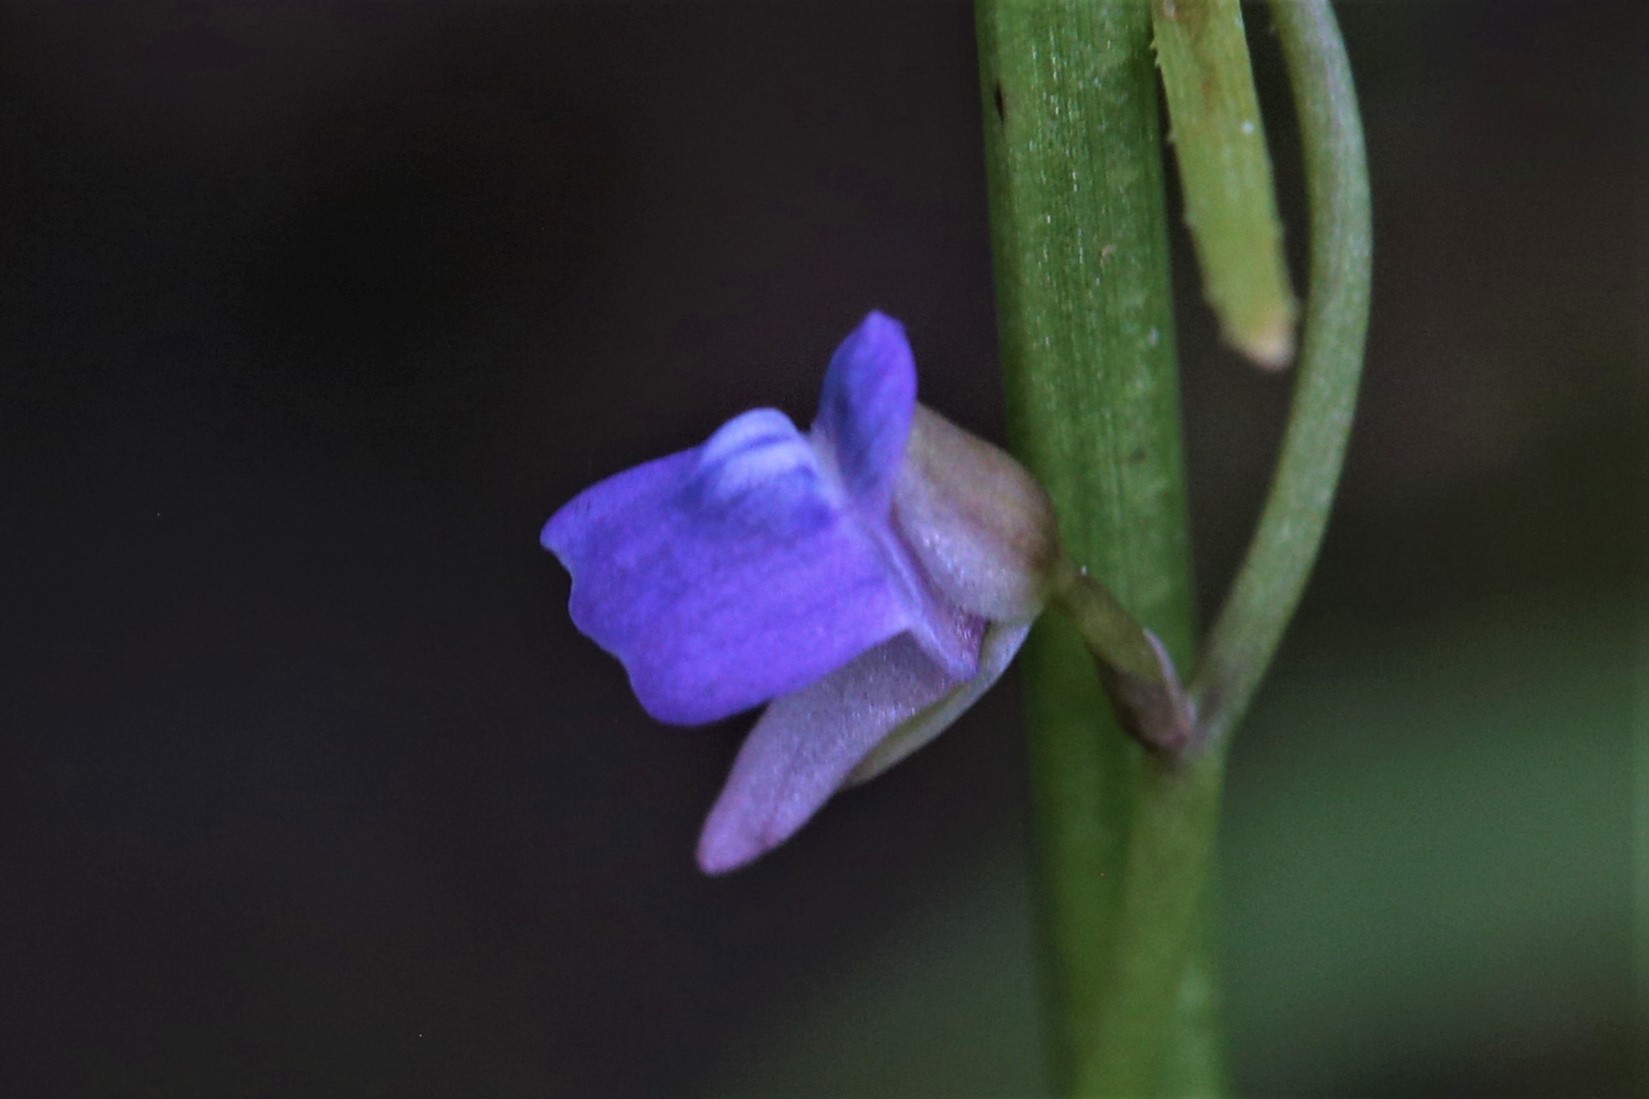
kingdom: Plantae
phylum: Tracheophyta
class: Magnoliopsida
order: Lamiales
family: Lentibulariaceae
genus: Utricularia
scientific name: Utricularia foveolata
